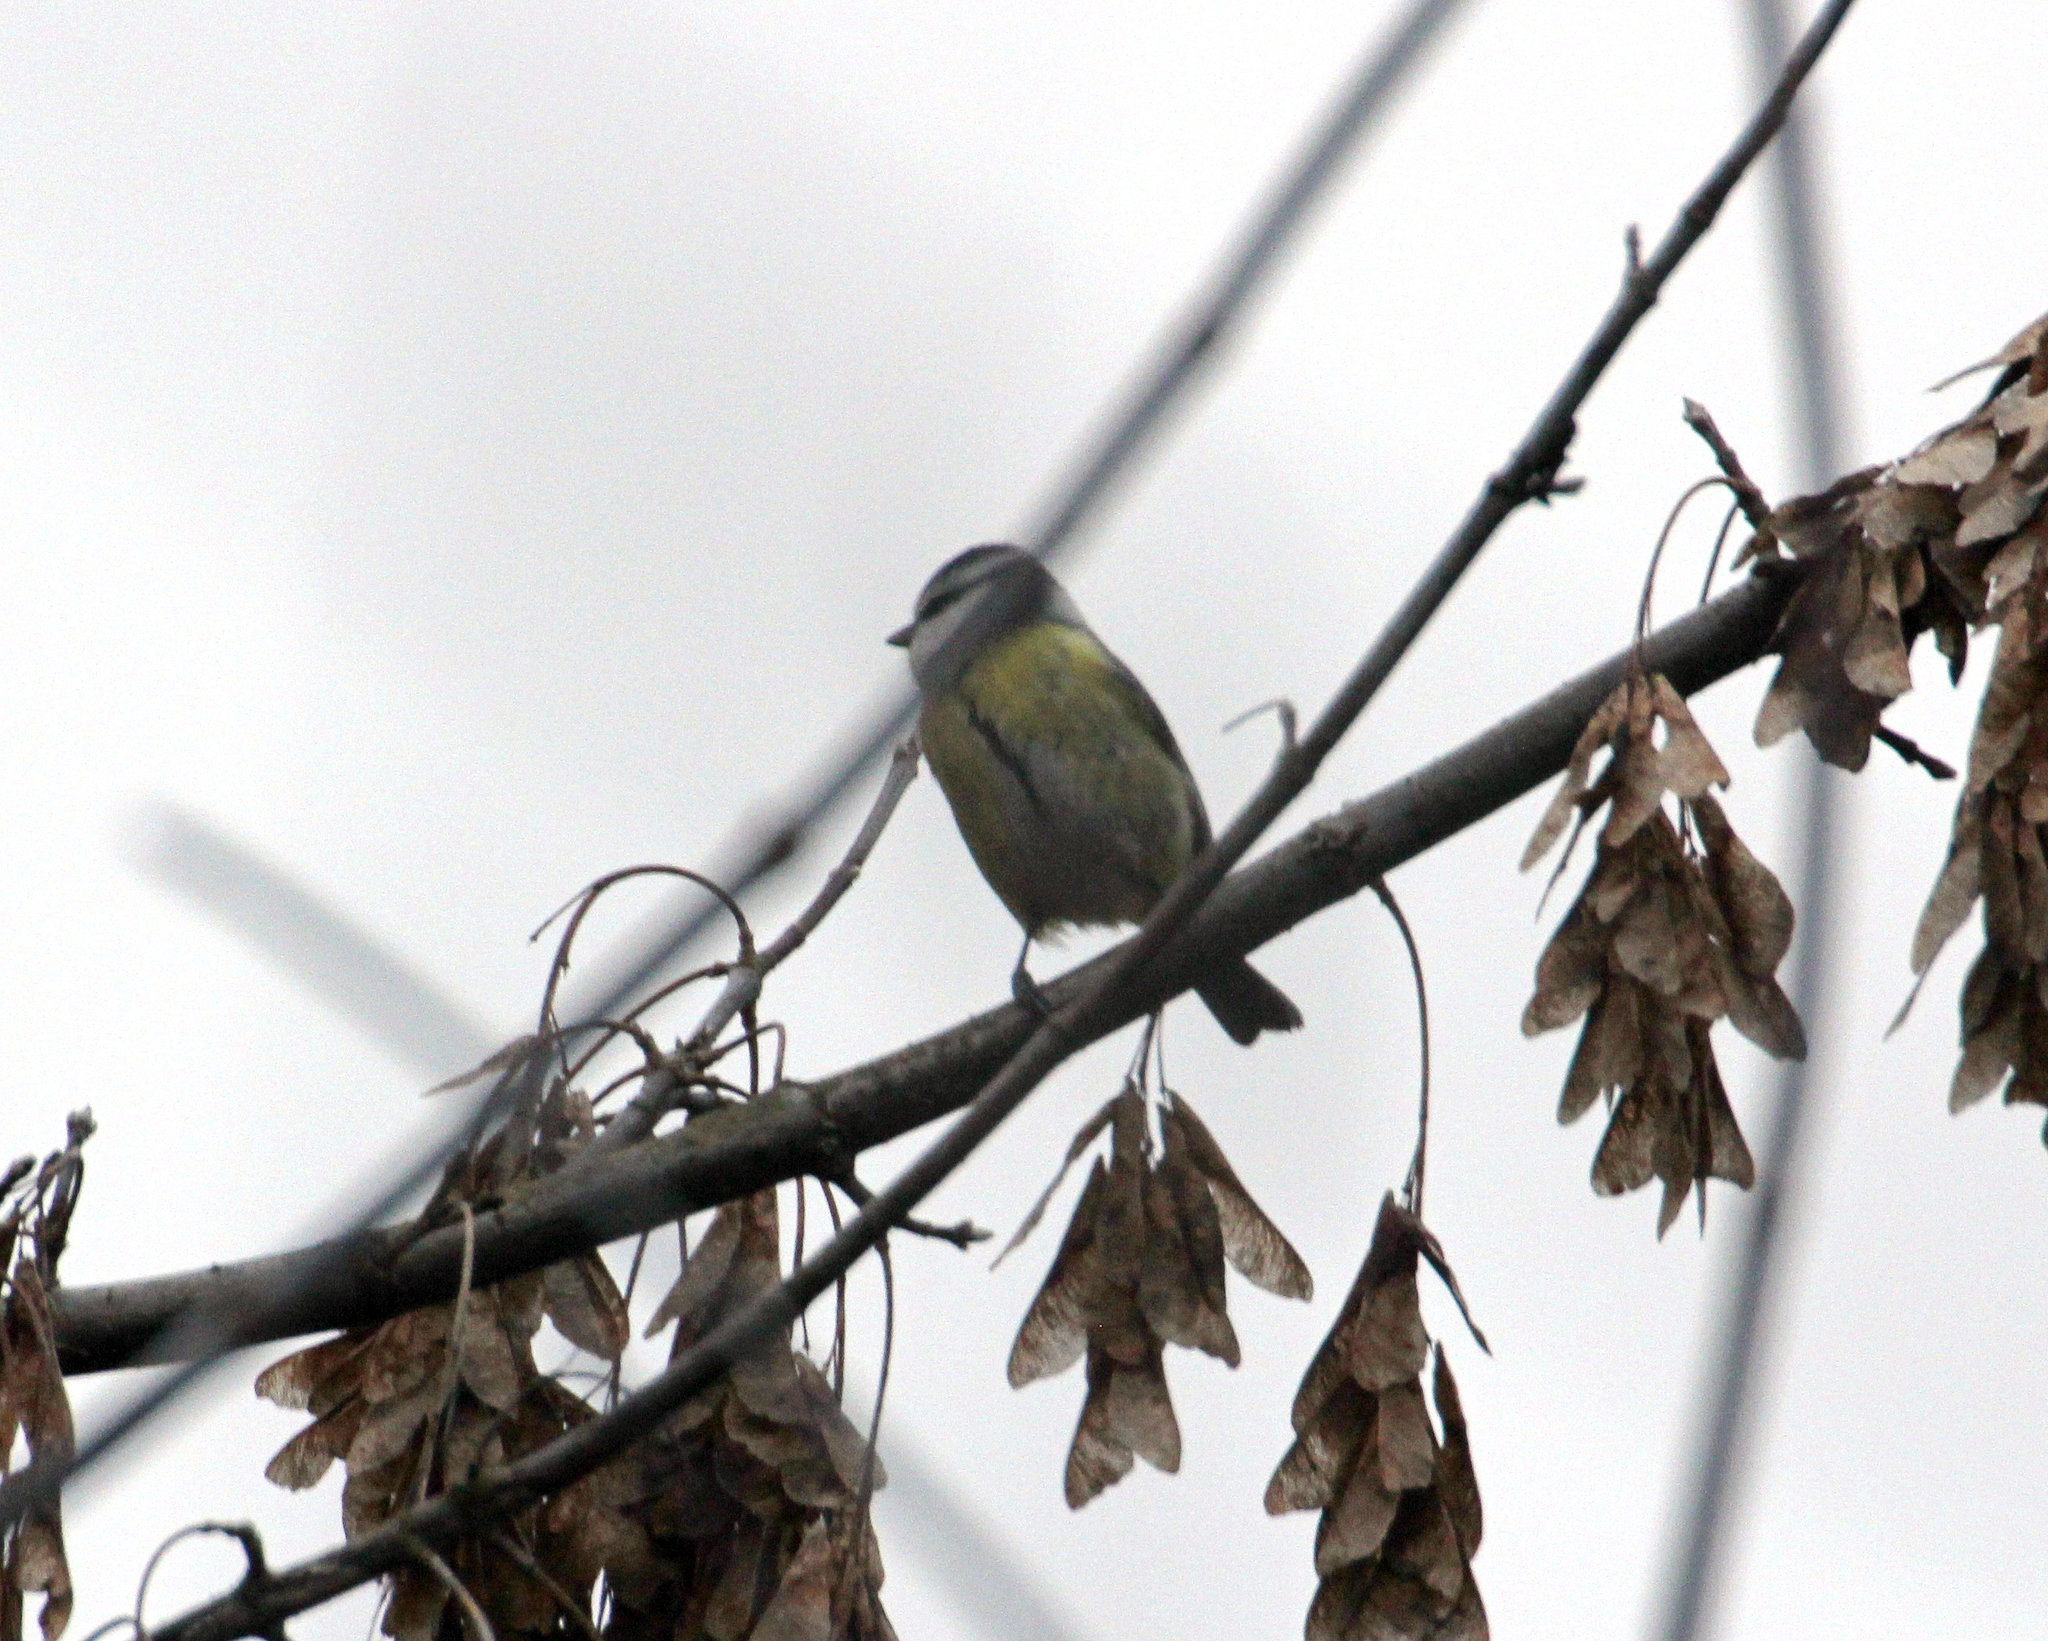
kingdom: Animalia
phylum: Chordata
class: Aves
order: Passeriformes
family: Paridae
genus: Cyanistes
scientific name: Cyanistes caeruleus
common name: Eurasian blue tit
